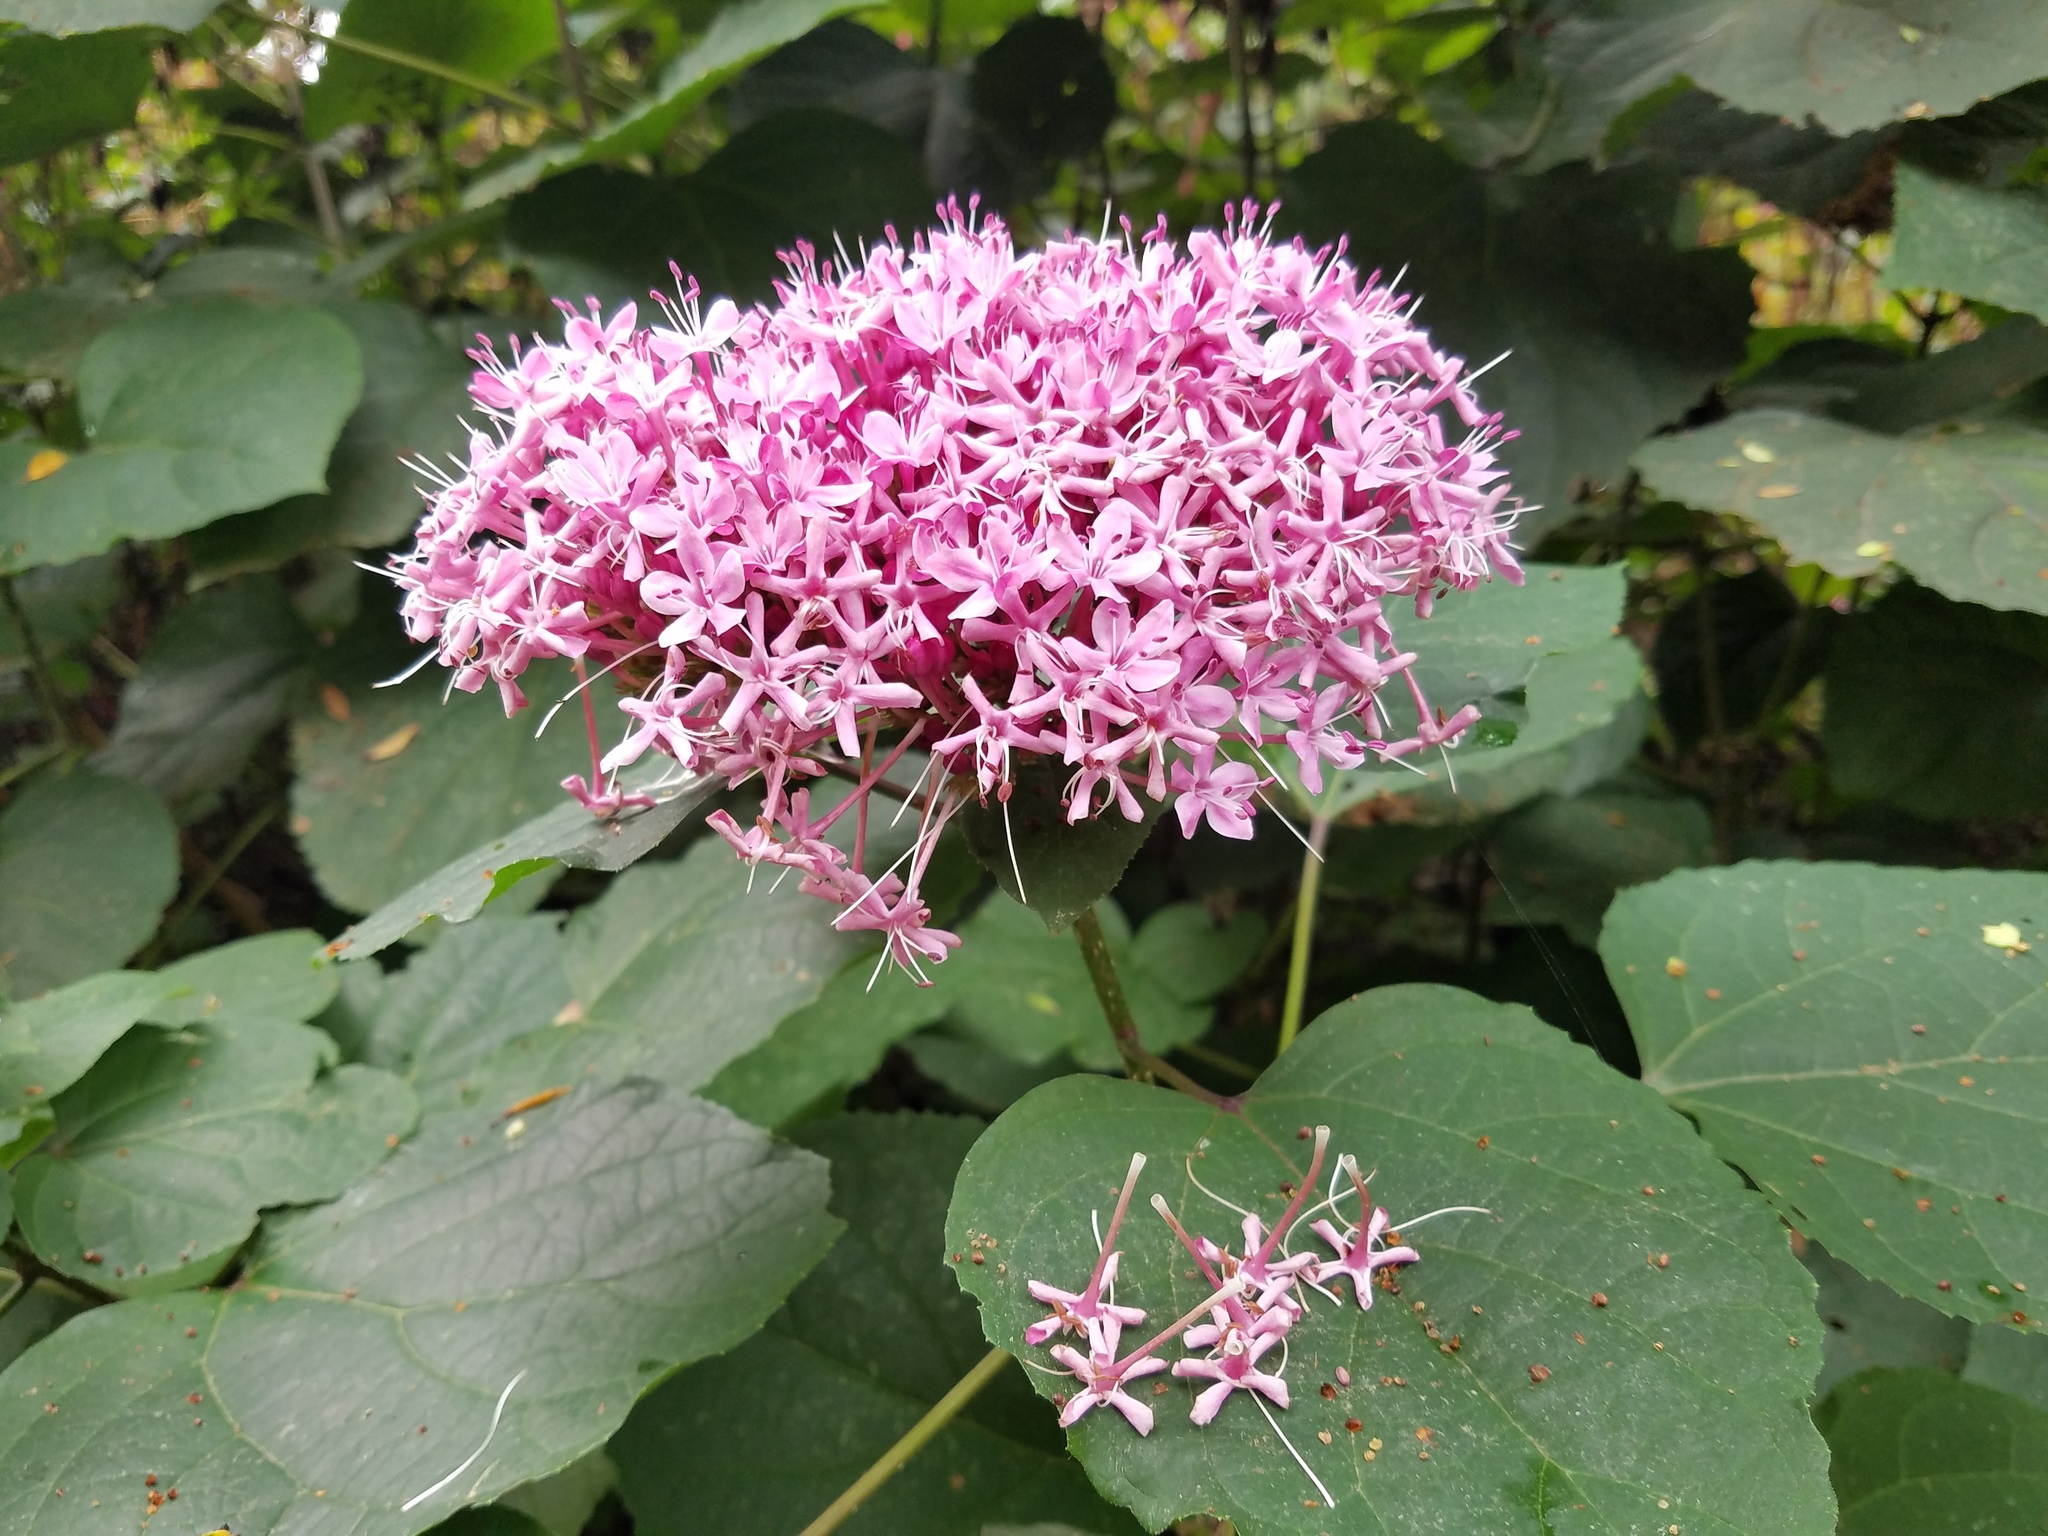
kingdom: Plantae
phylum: Tracheophyta
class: Magnoliopsida
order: Lamiales
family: Lamiaceae
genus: Clerodendrum
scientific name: Clerodendrum bungei
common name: Rose glorybower
